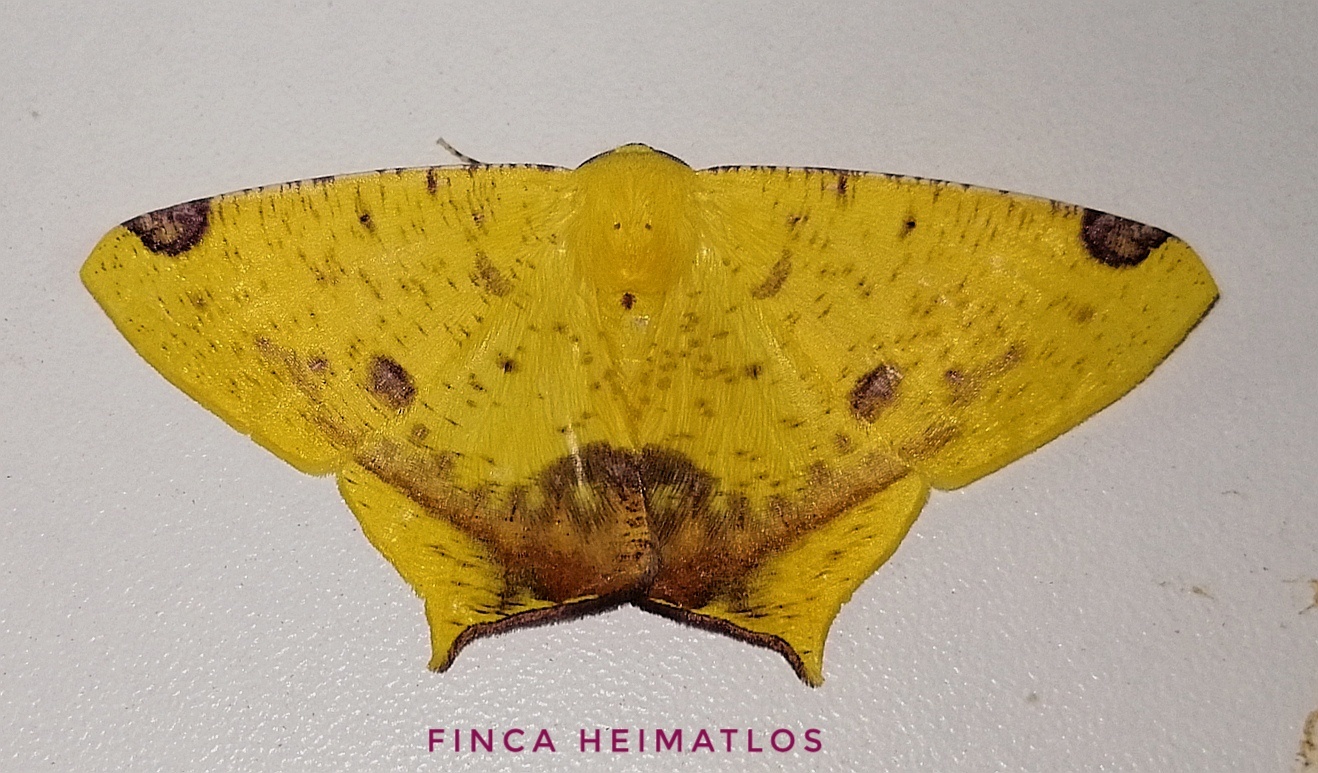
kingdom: Animalia
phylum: Arthropoda
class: Insecta
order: Lepidoptera
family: Geometridae
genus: Nepheloleuca
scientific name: Nepheloleuca politia
